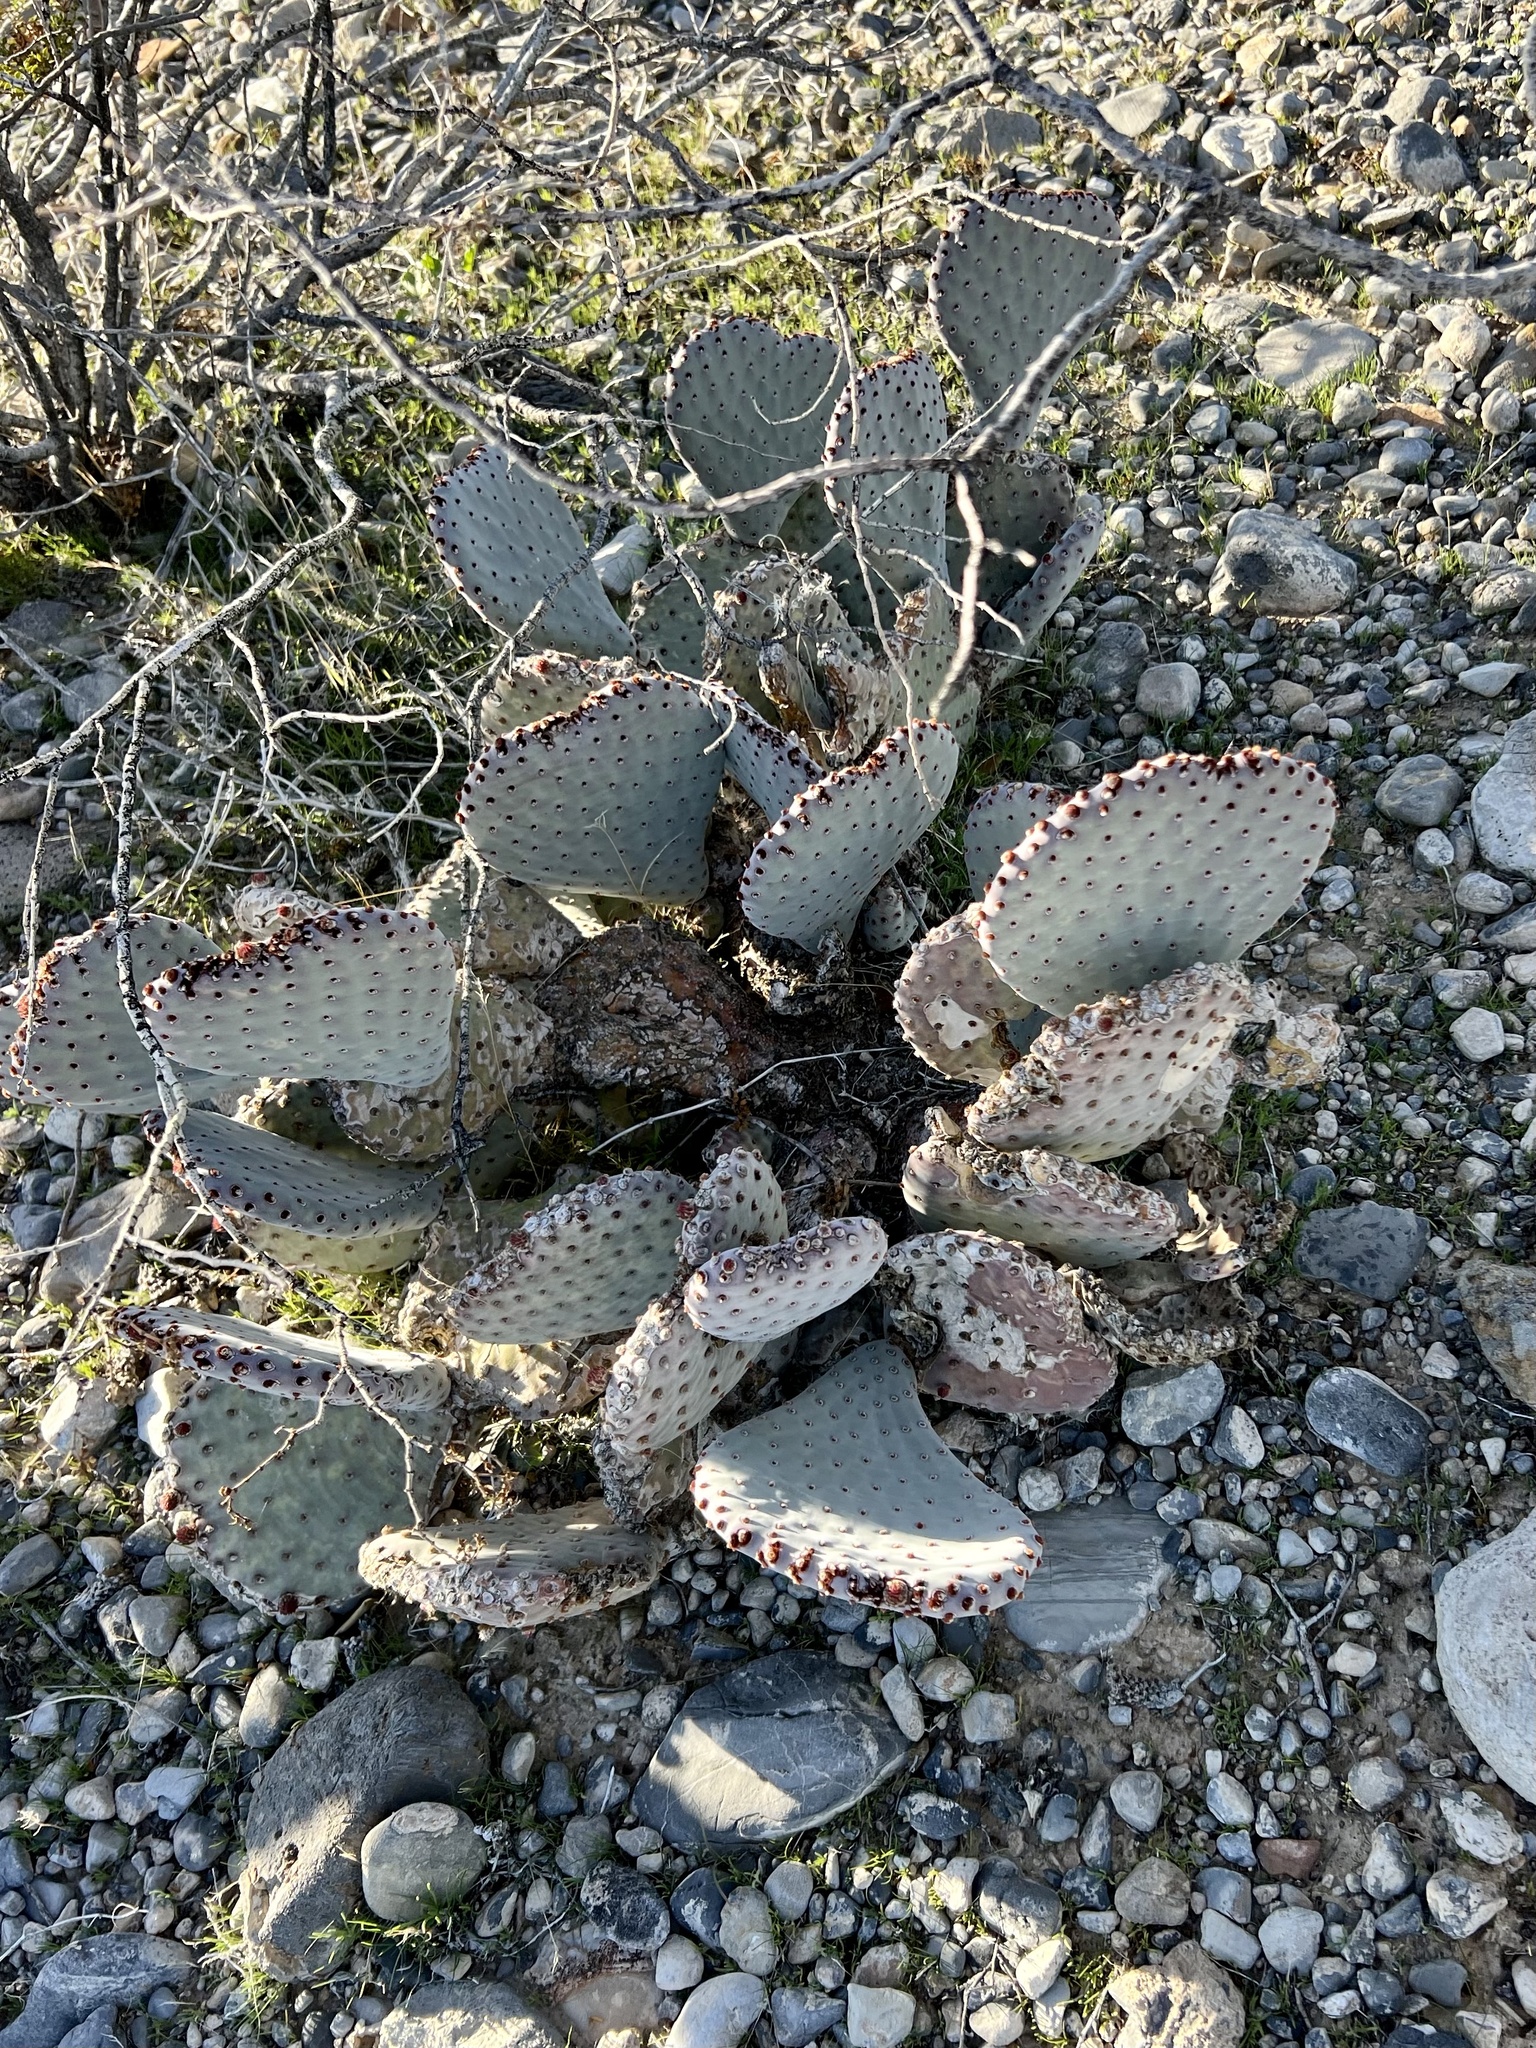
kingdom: Plantae
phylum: Tracheophyta
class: Magnoliopsida
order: Caryophyllales
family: Cactaceae
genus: Opuntia
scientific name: Opuntia basilaris
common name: Beavertail prickly-pear
